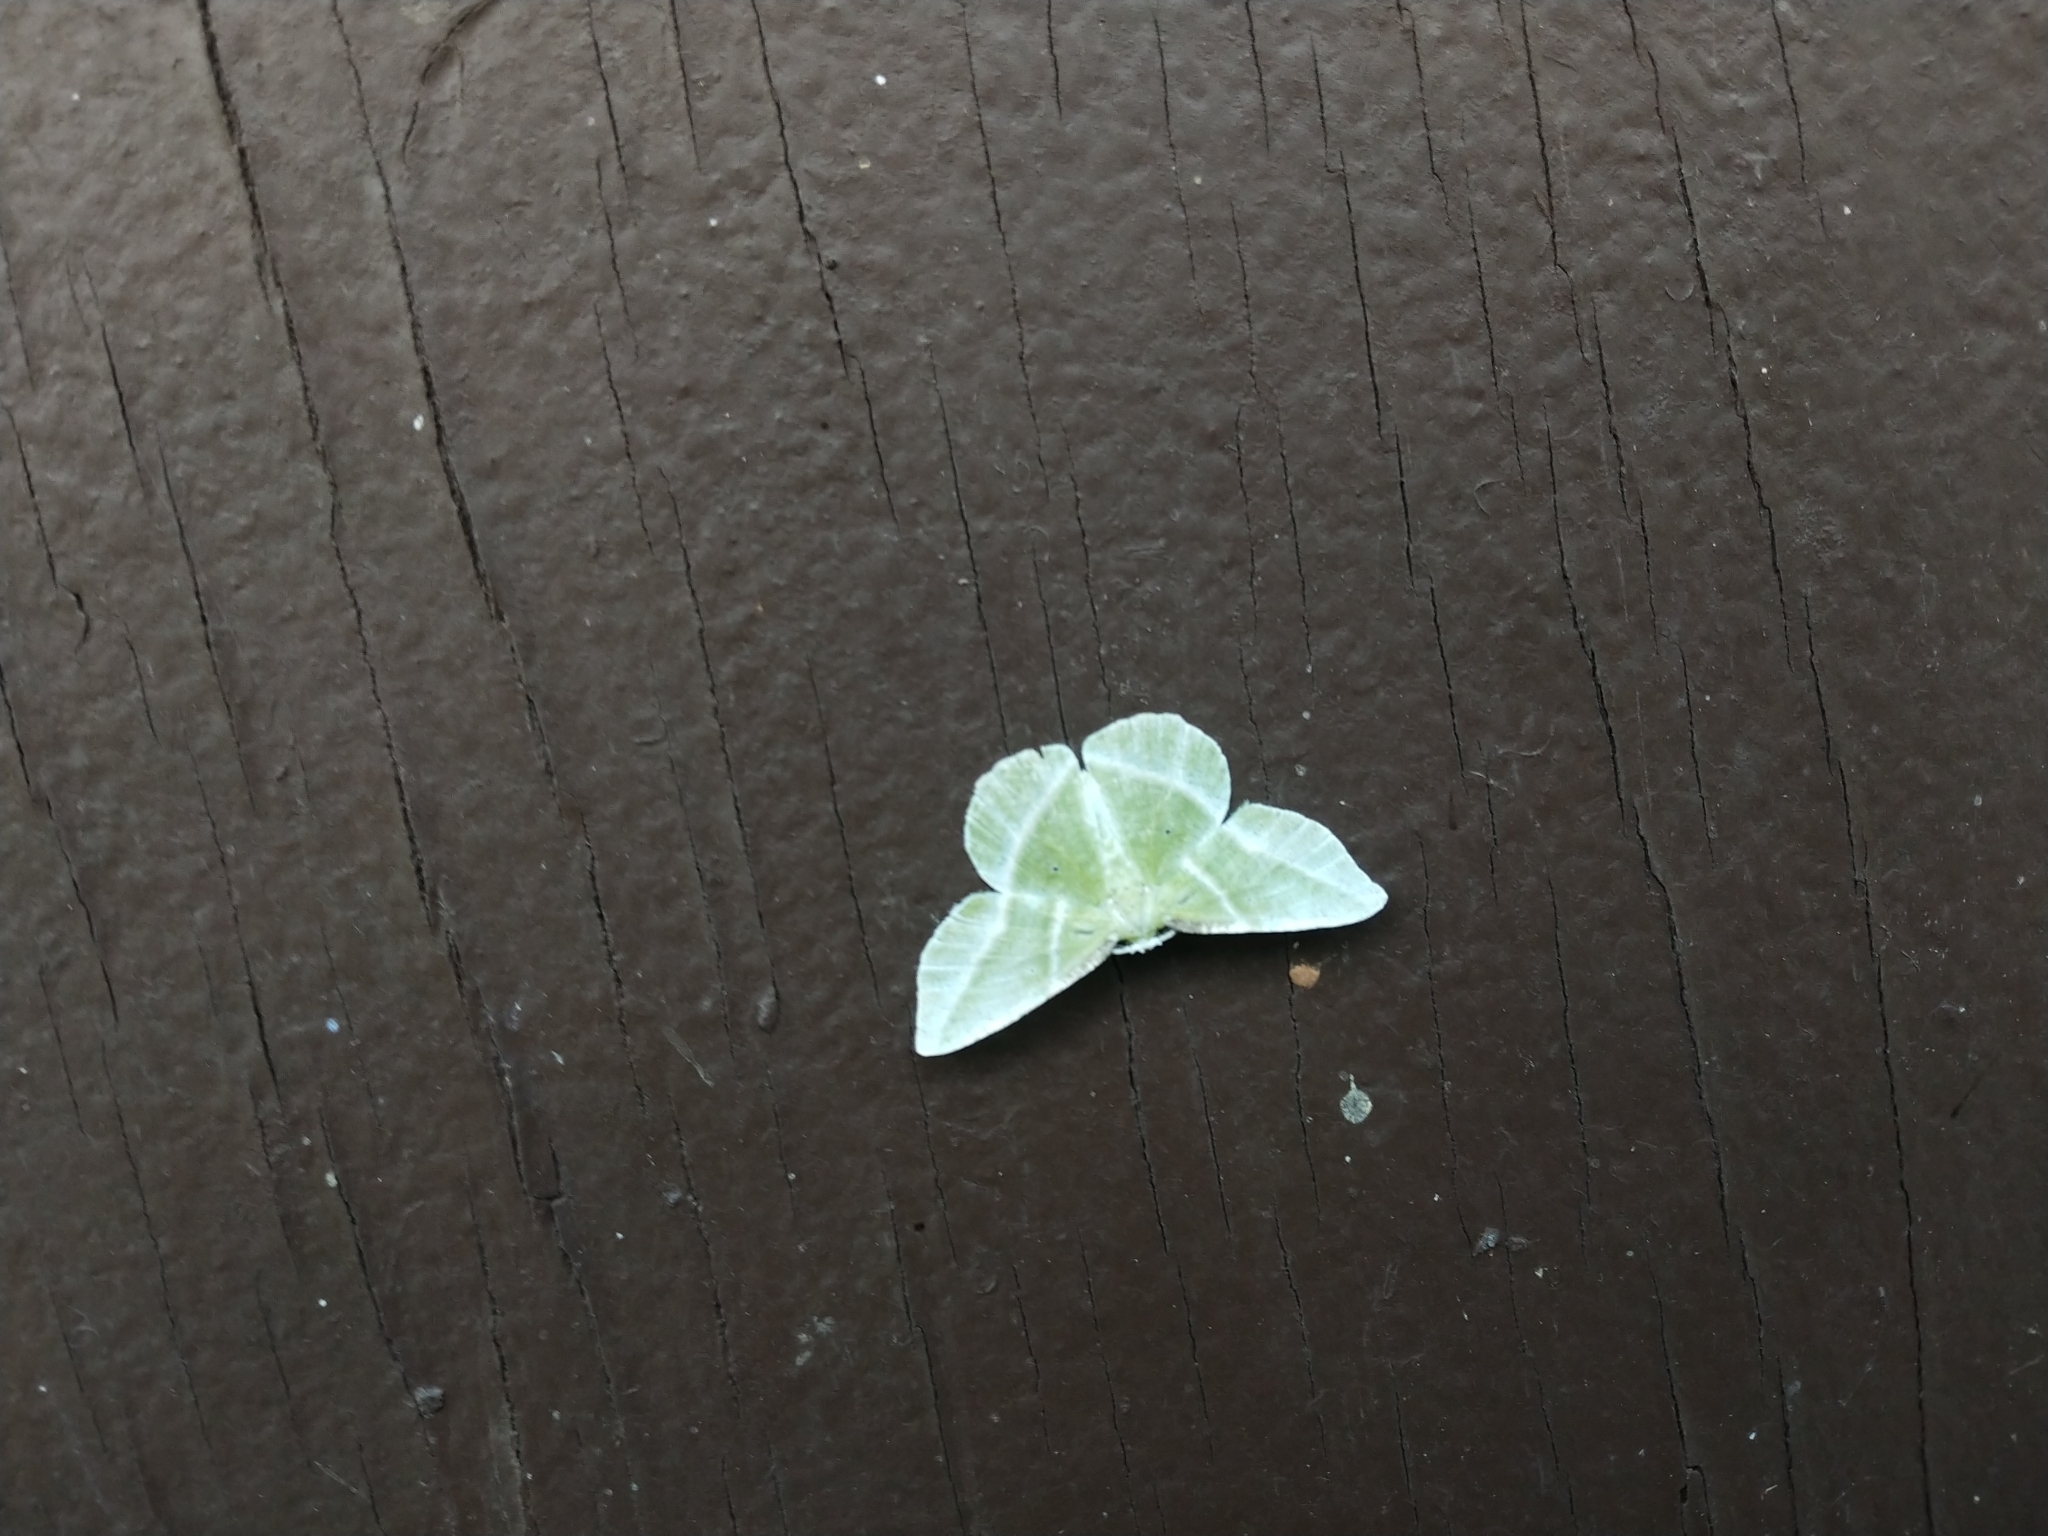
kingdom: Animalia
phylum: Arthropoda
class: Insecta
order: Lepidoptera
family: Geometridae
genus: Dichorda
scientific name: Dichorda iridaria
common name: Showy emerald
